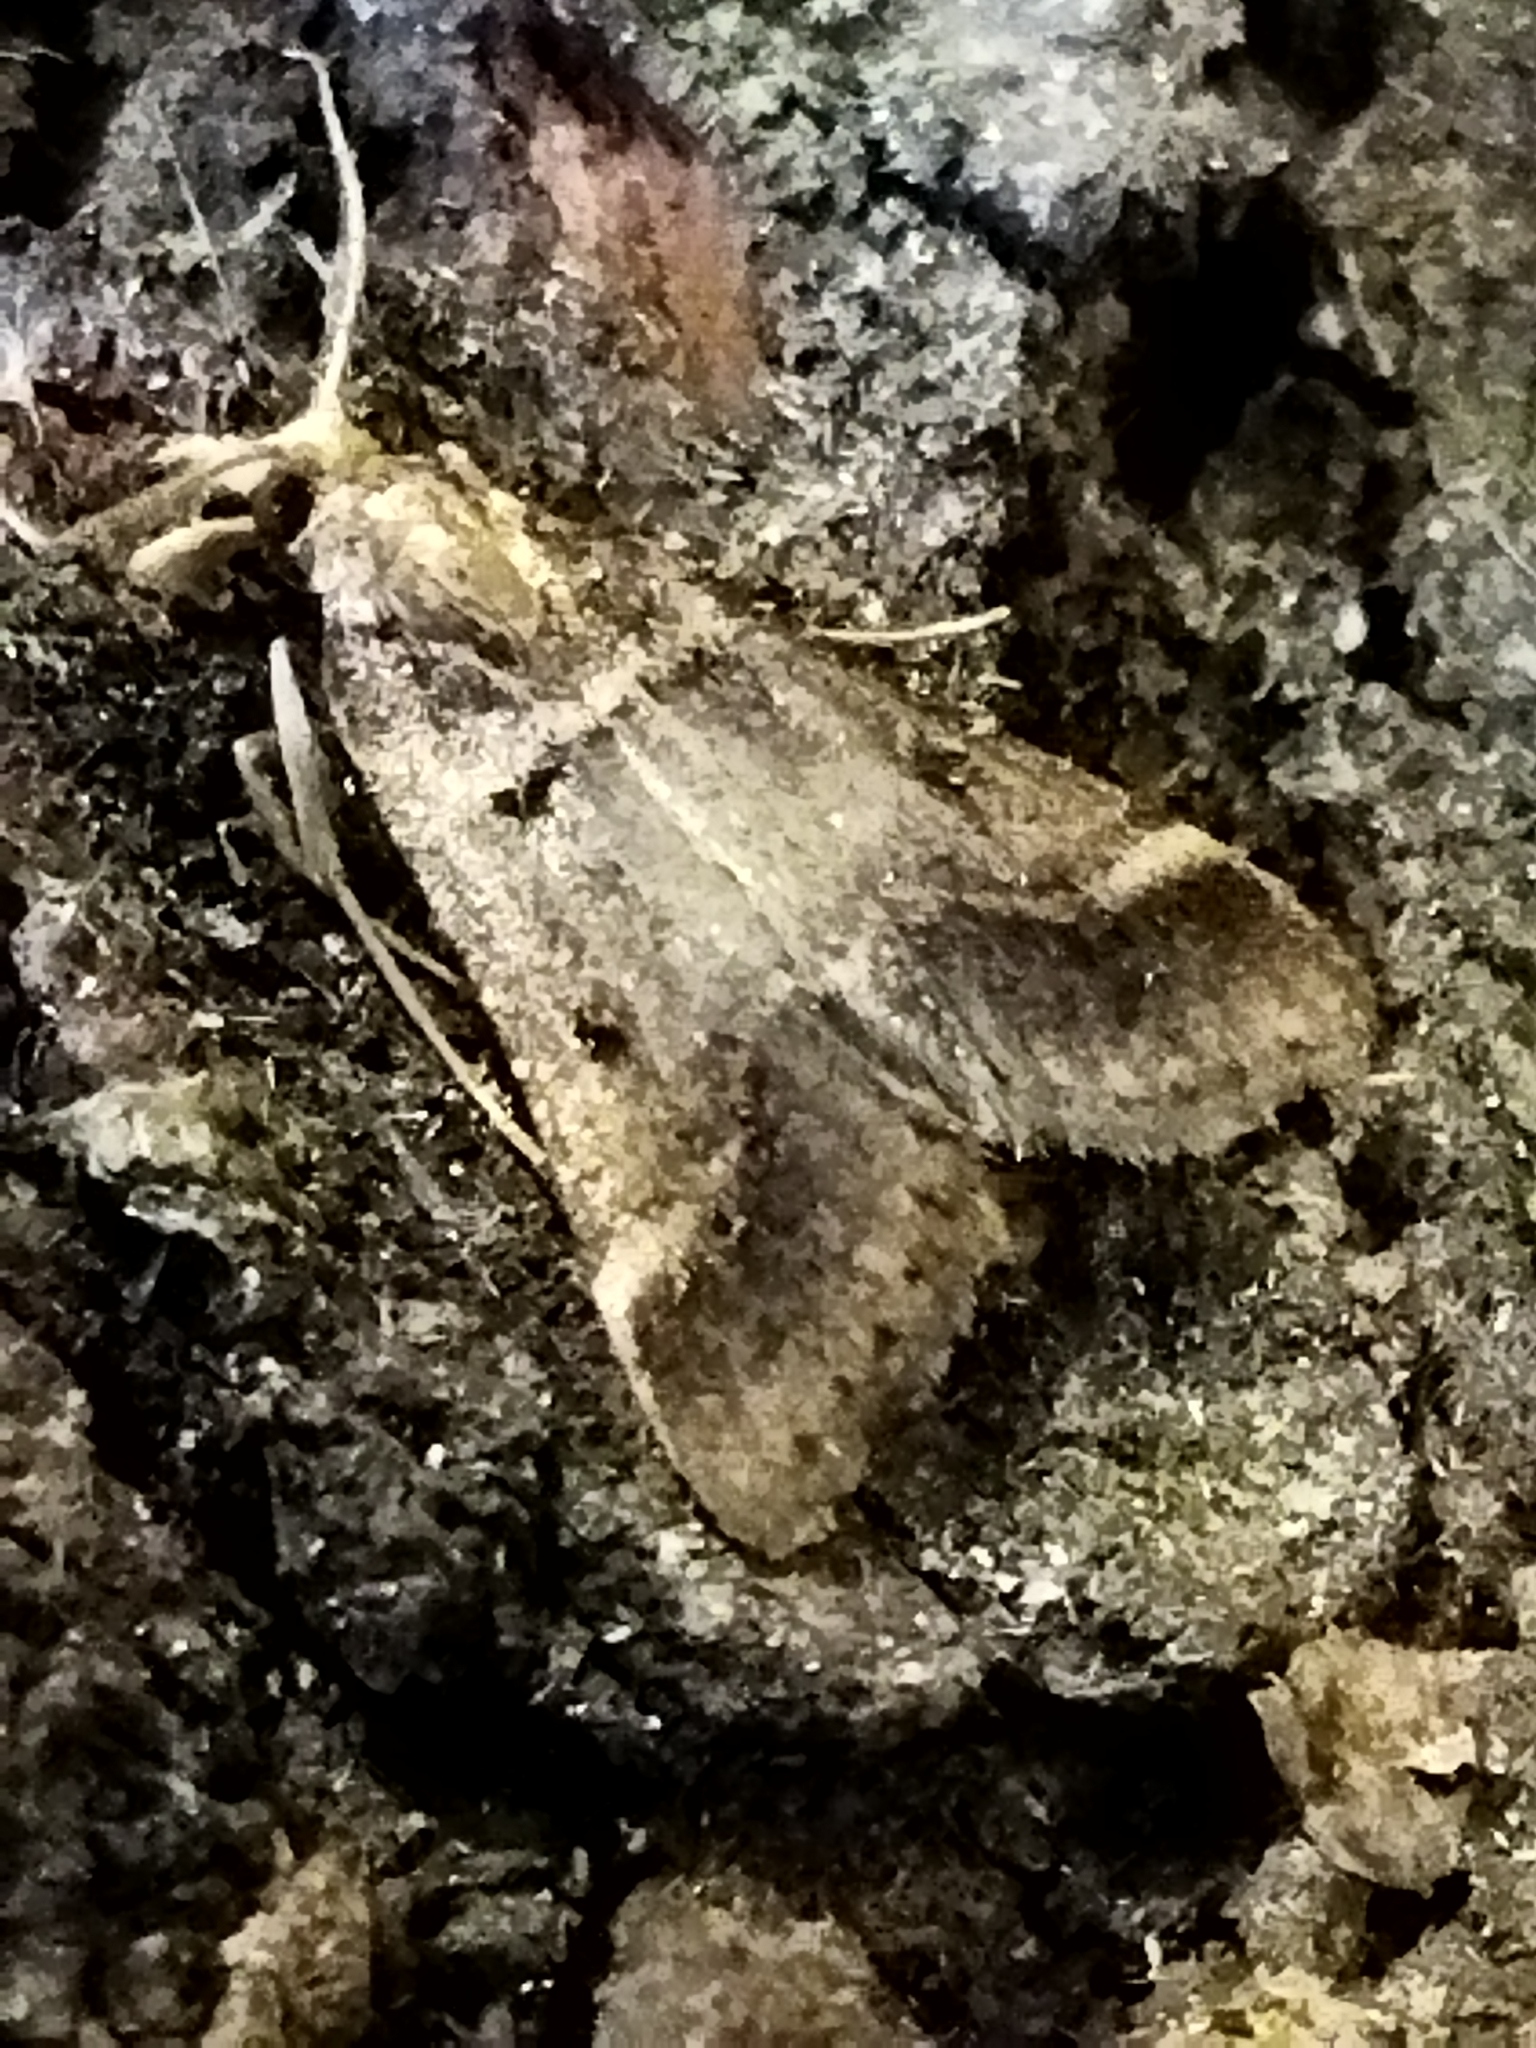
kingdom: Animalia
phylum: Arthropoda
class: Insecta
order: Lepidoptera
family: Pyralidae
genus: Stemmatophora
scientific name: Stemmatophora brunnealis
